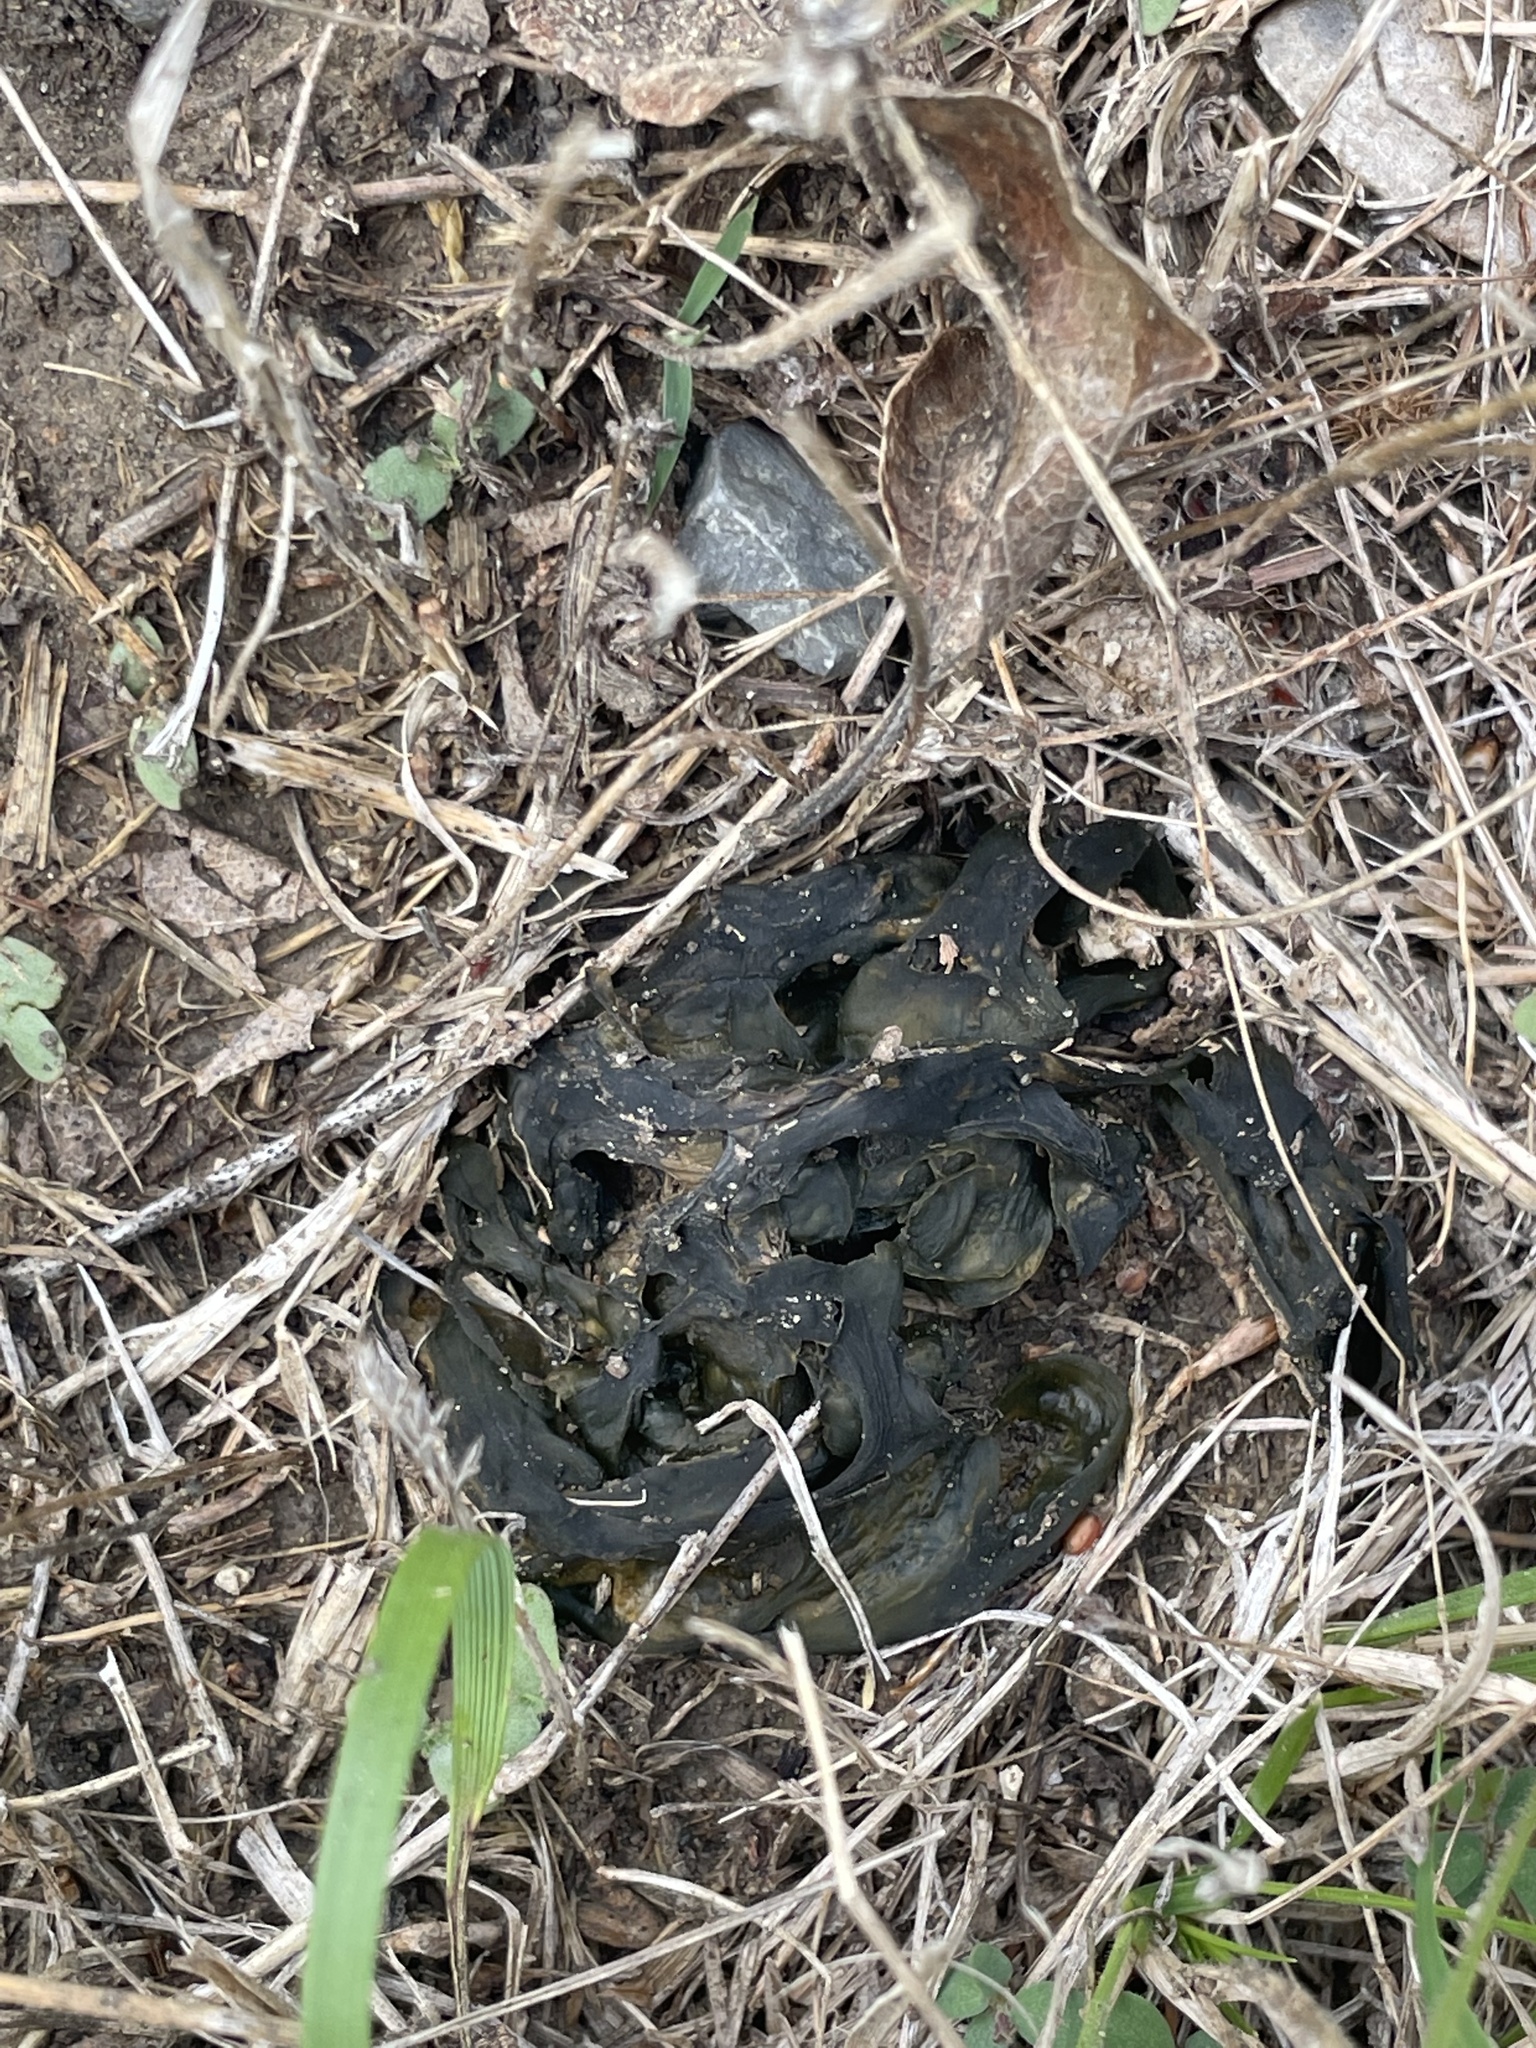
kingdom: Bacteria
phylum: Cyanobacteria
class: Cyanobacteriia
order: Cyanobacteriales
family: Nostocaceae
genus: Nostoc
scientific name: Nostoc commune
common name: Star jelly
